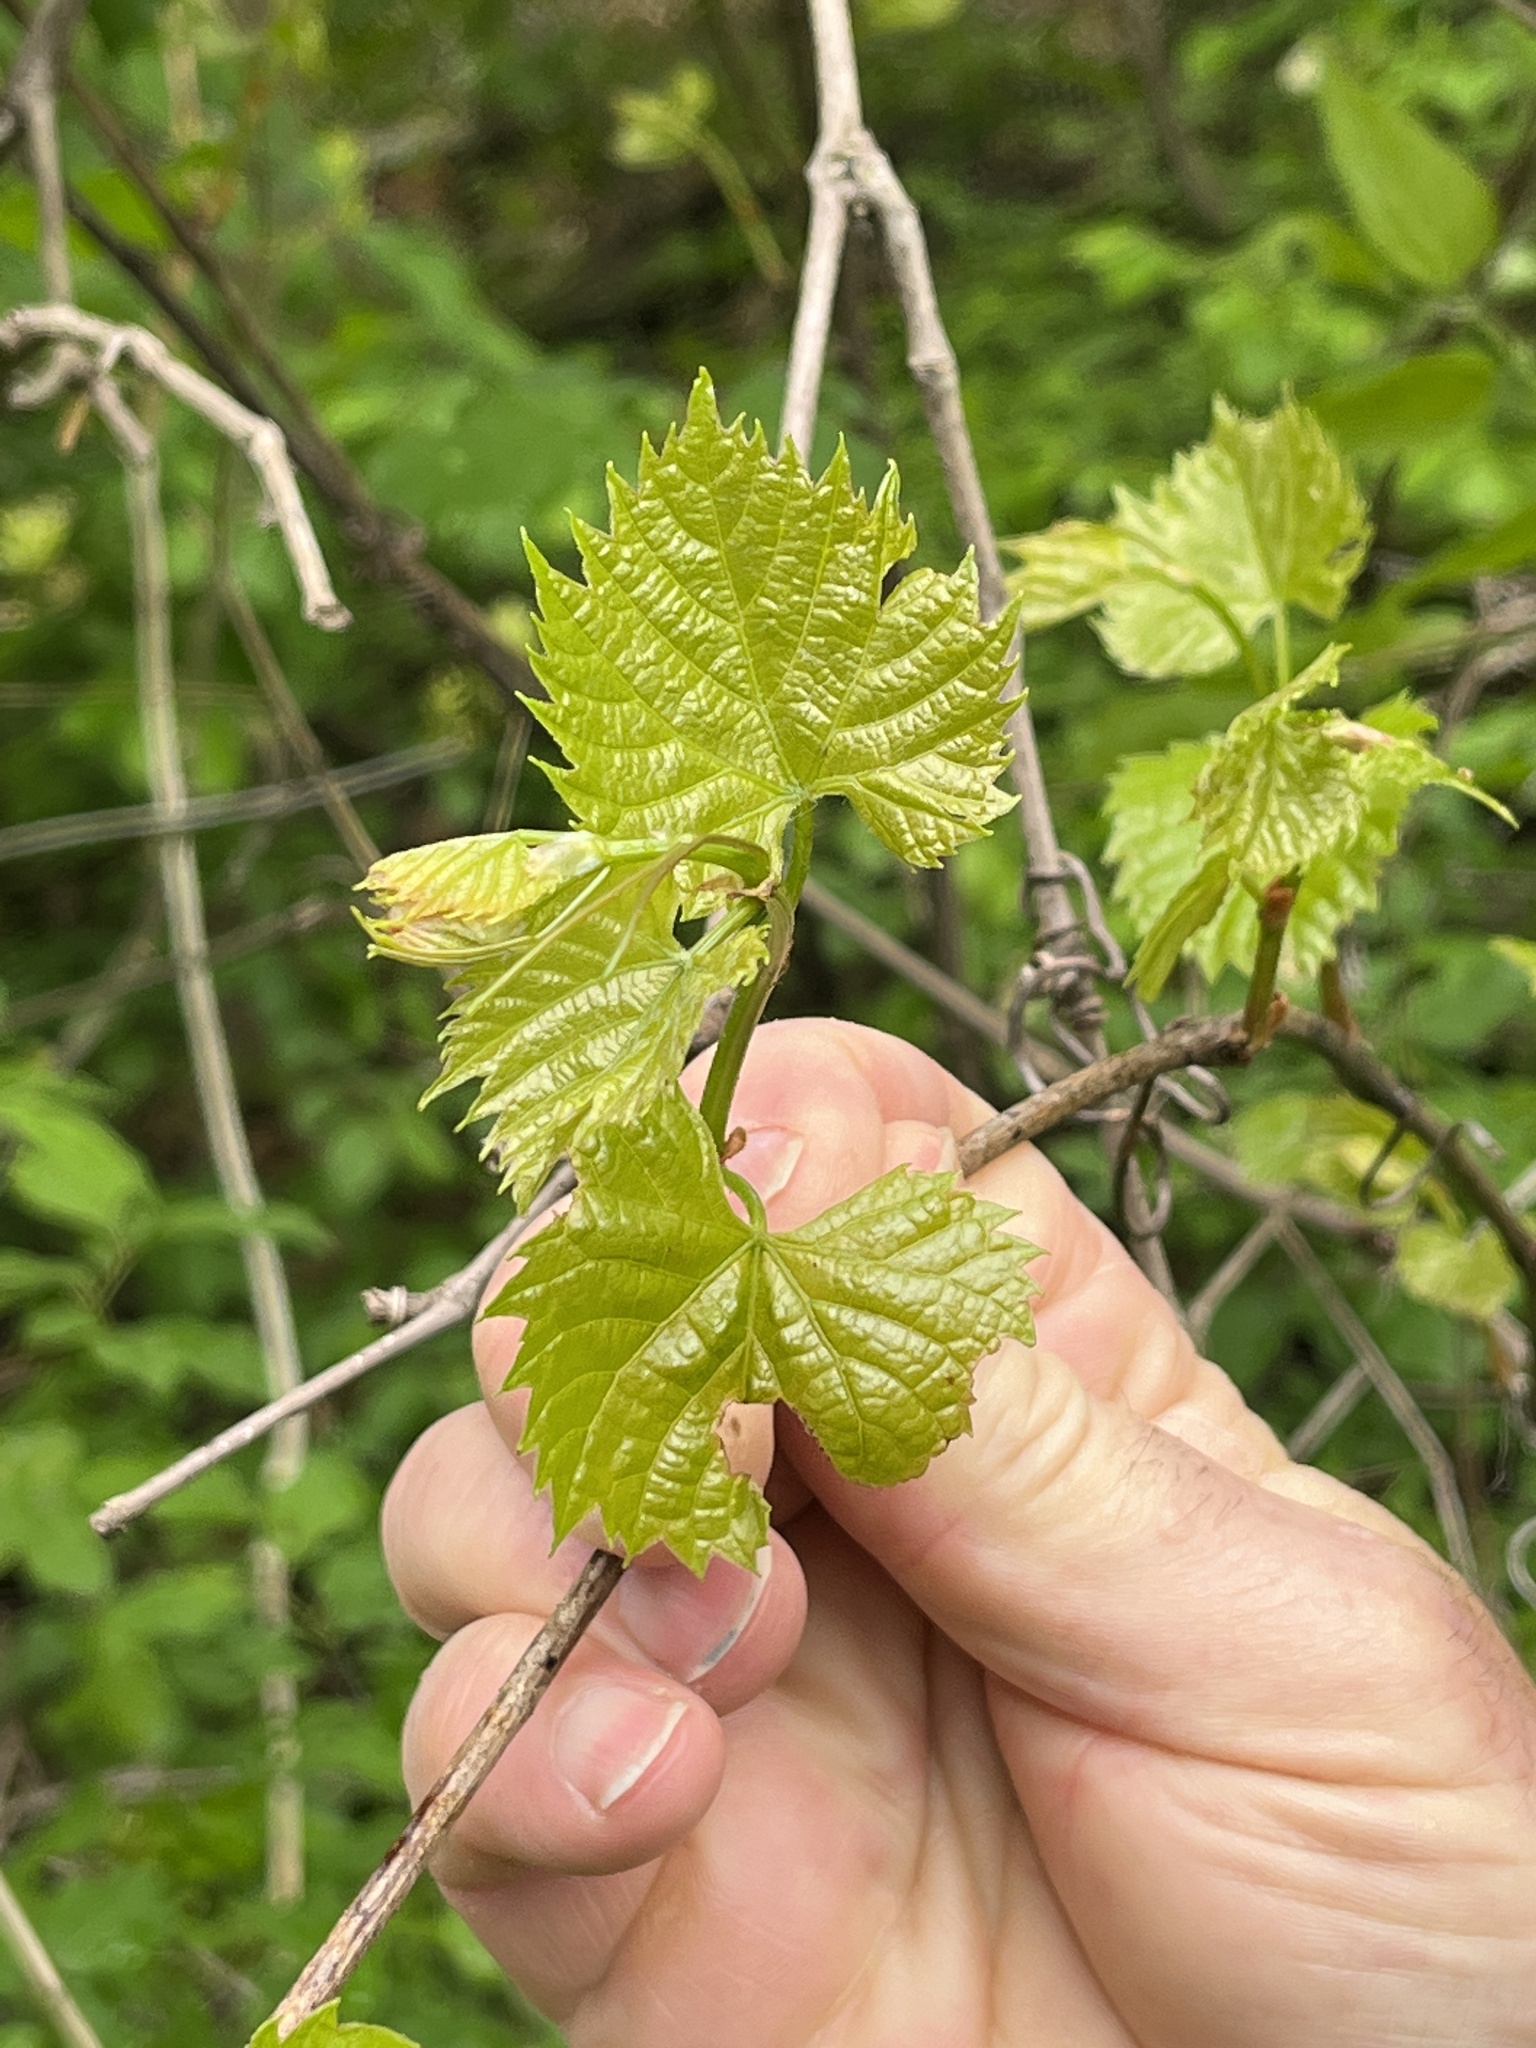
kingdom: Plantae
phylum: Tracheophyta
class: Magnoliopsida
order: Vitales
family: Vitaceae
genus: Vitis
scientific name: Vitis riparia
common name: Frost grape
